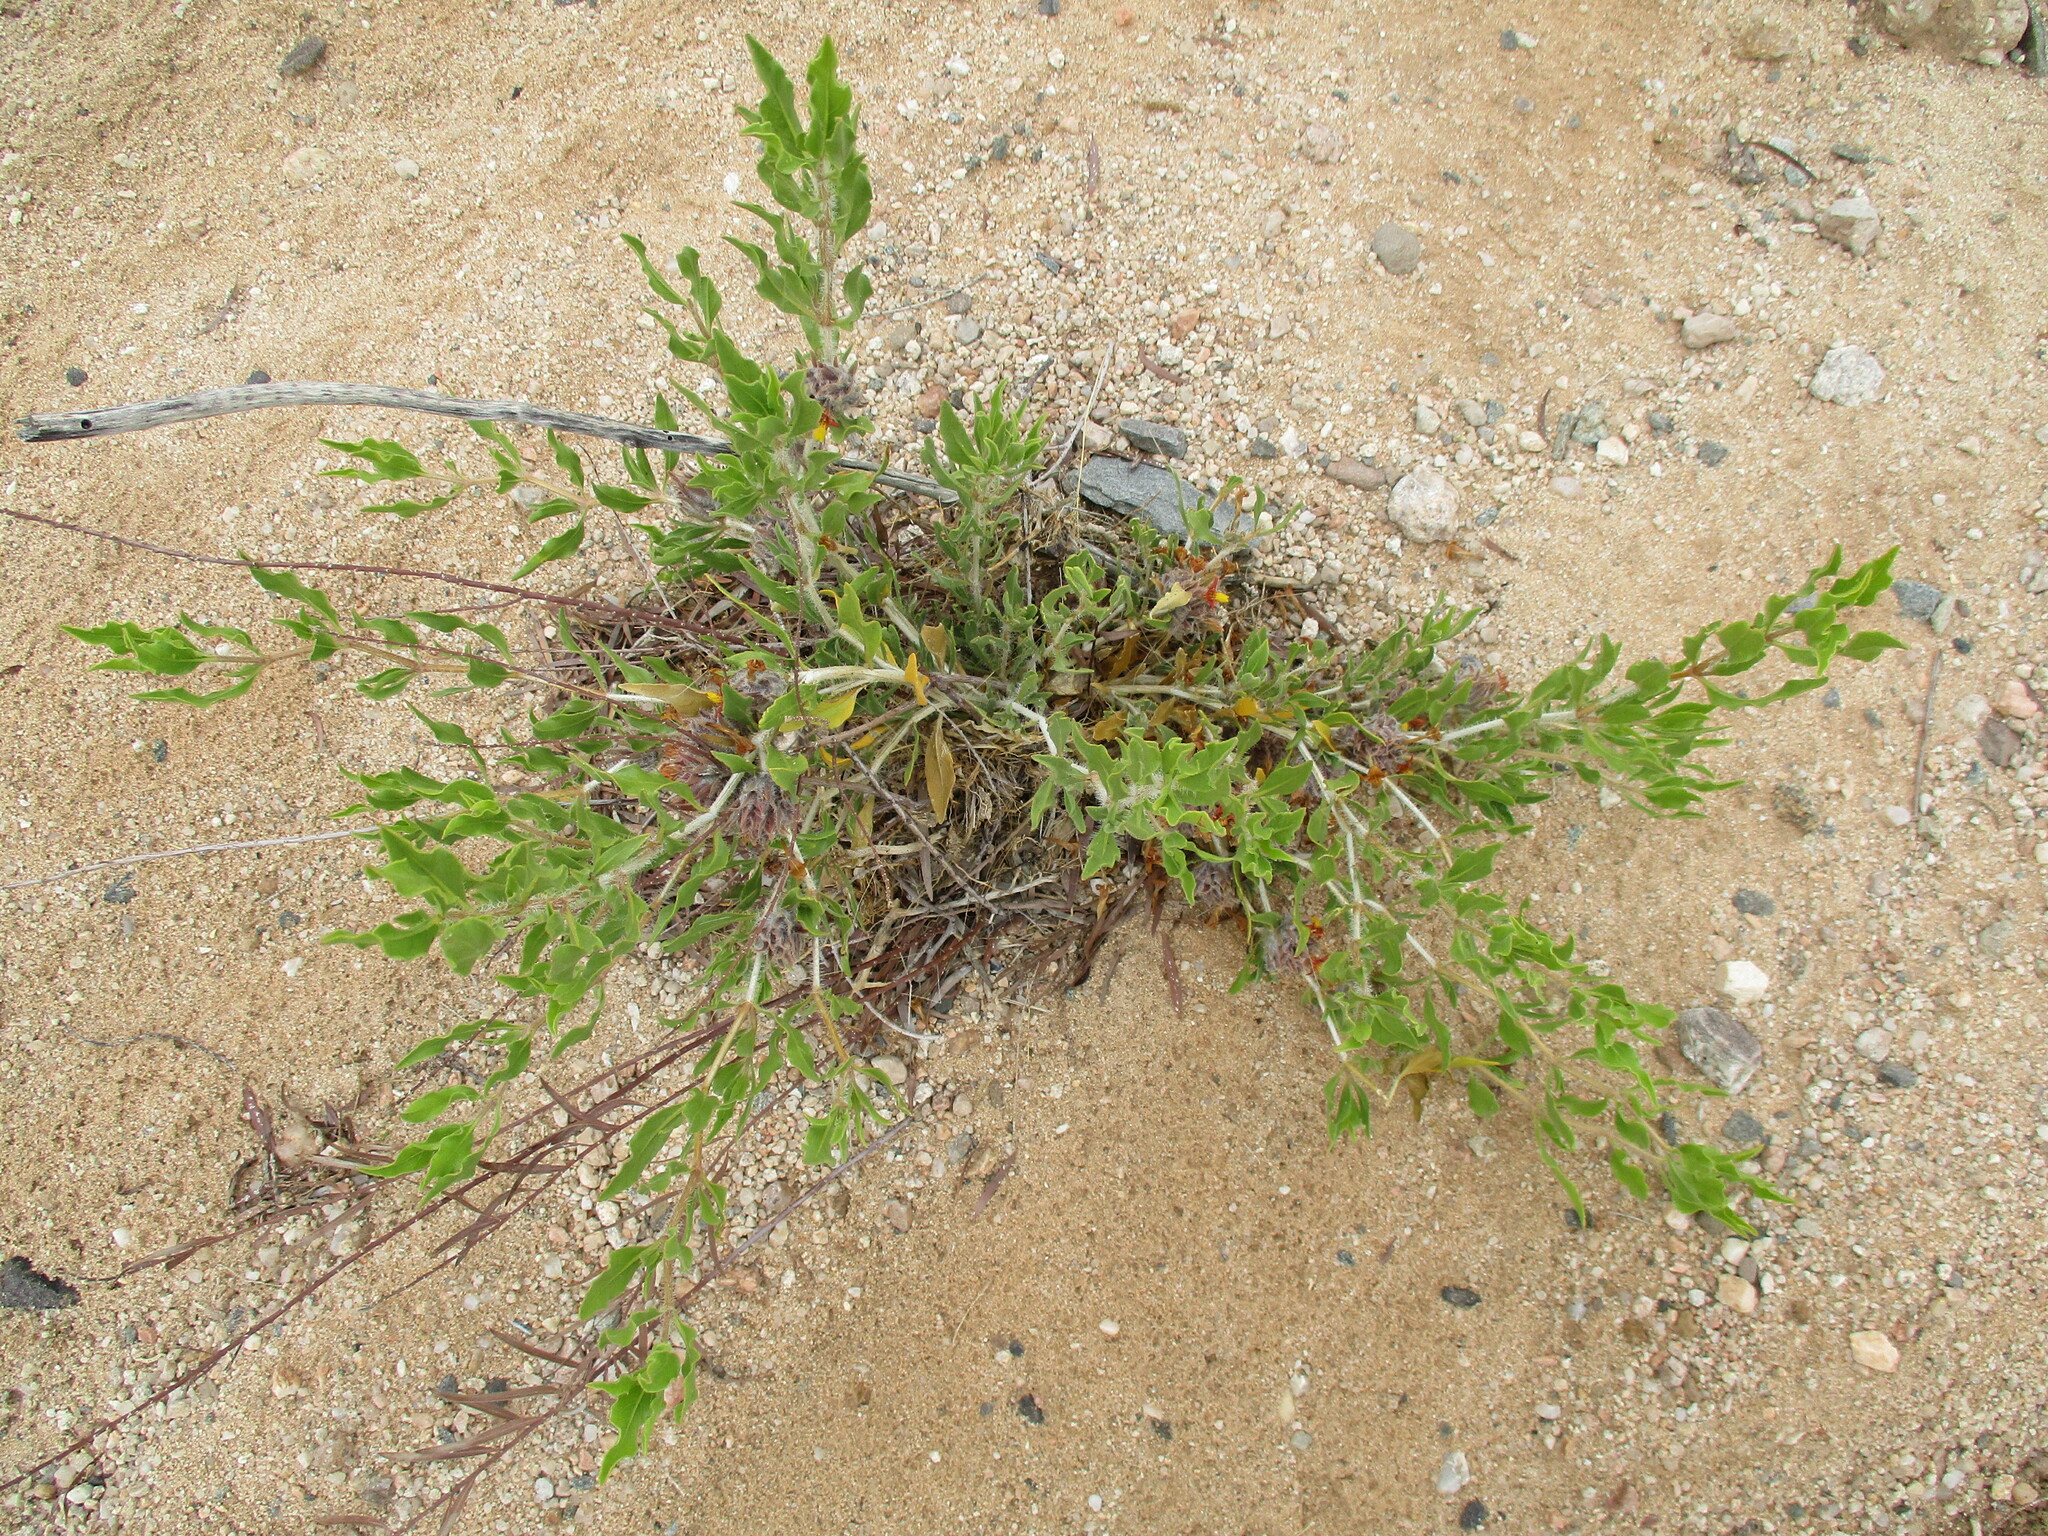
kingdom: Plantae
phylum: Tracheophyta
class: Magnoliopsida
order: Lamiales
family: Acanthaceae
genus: Petalidium
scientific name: Petalidium setosum
